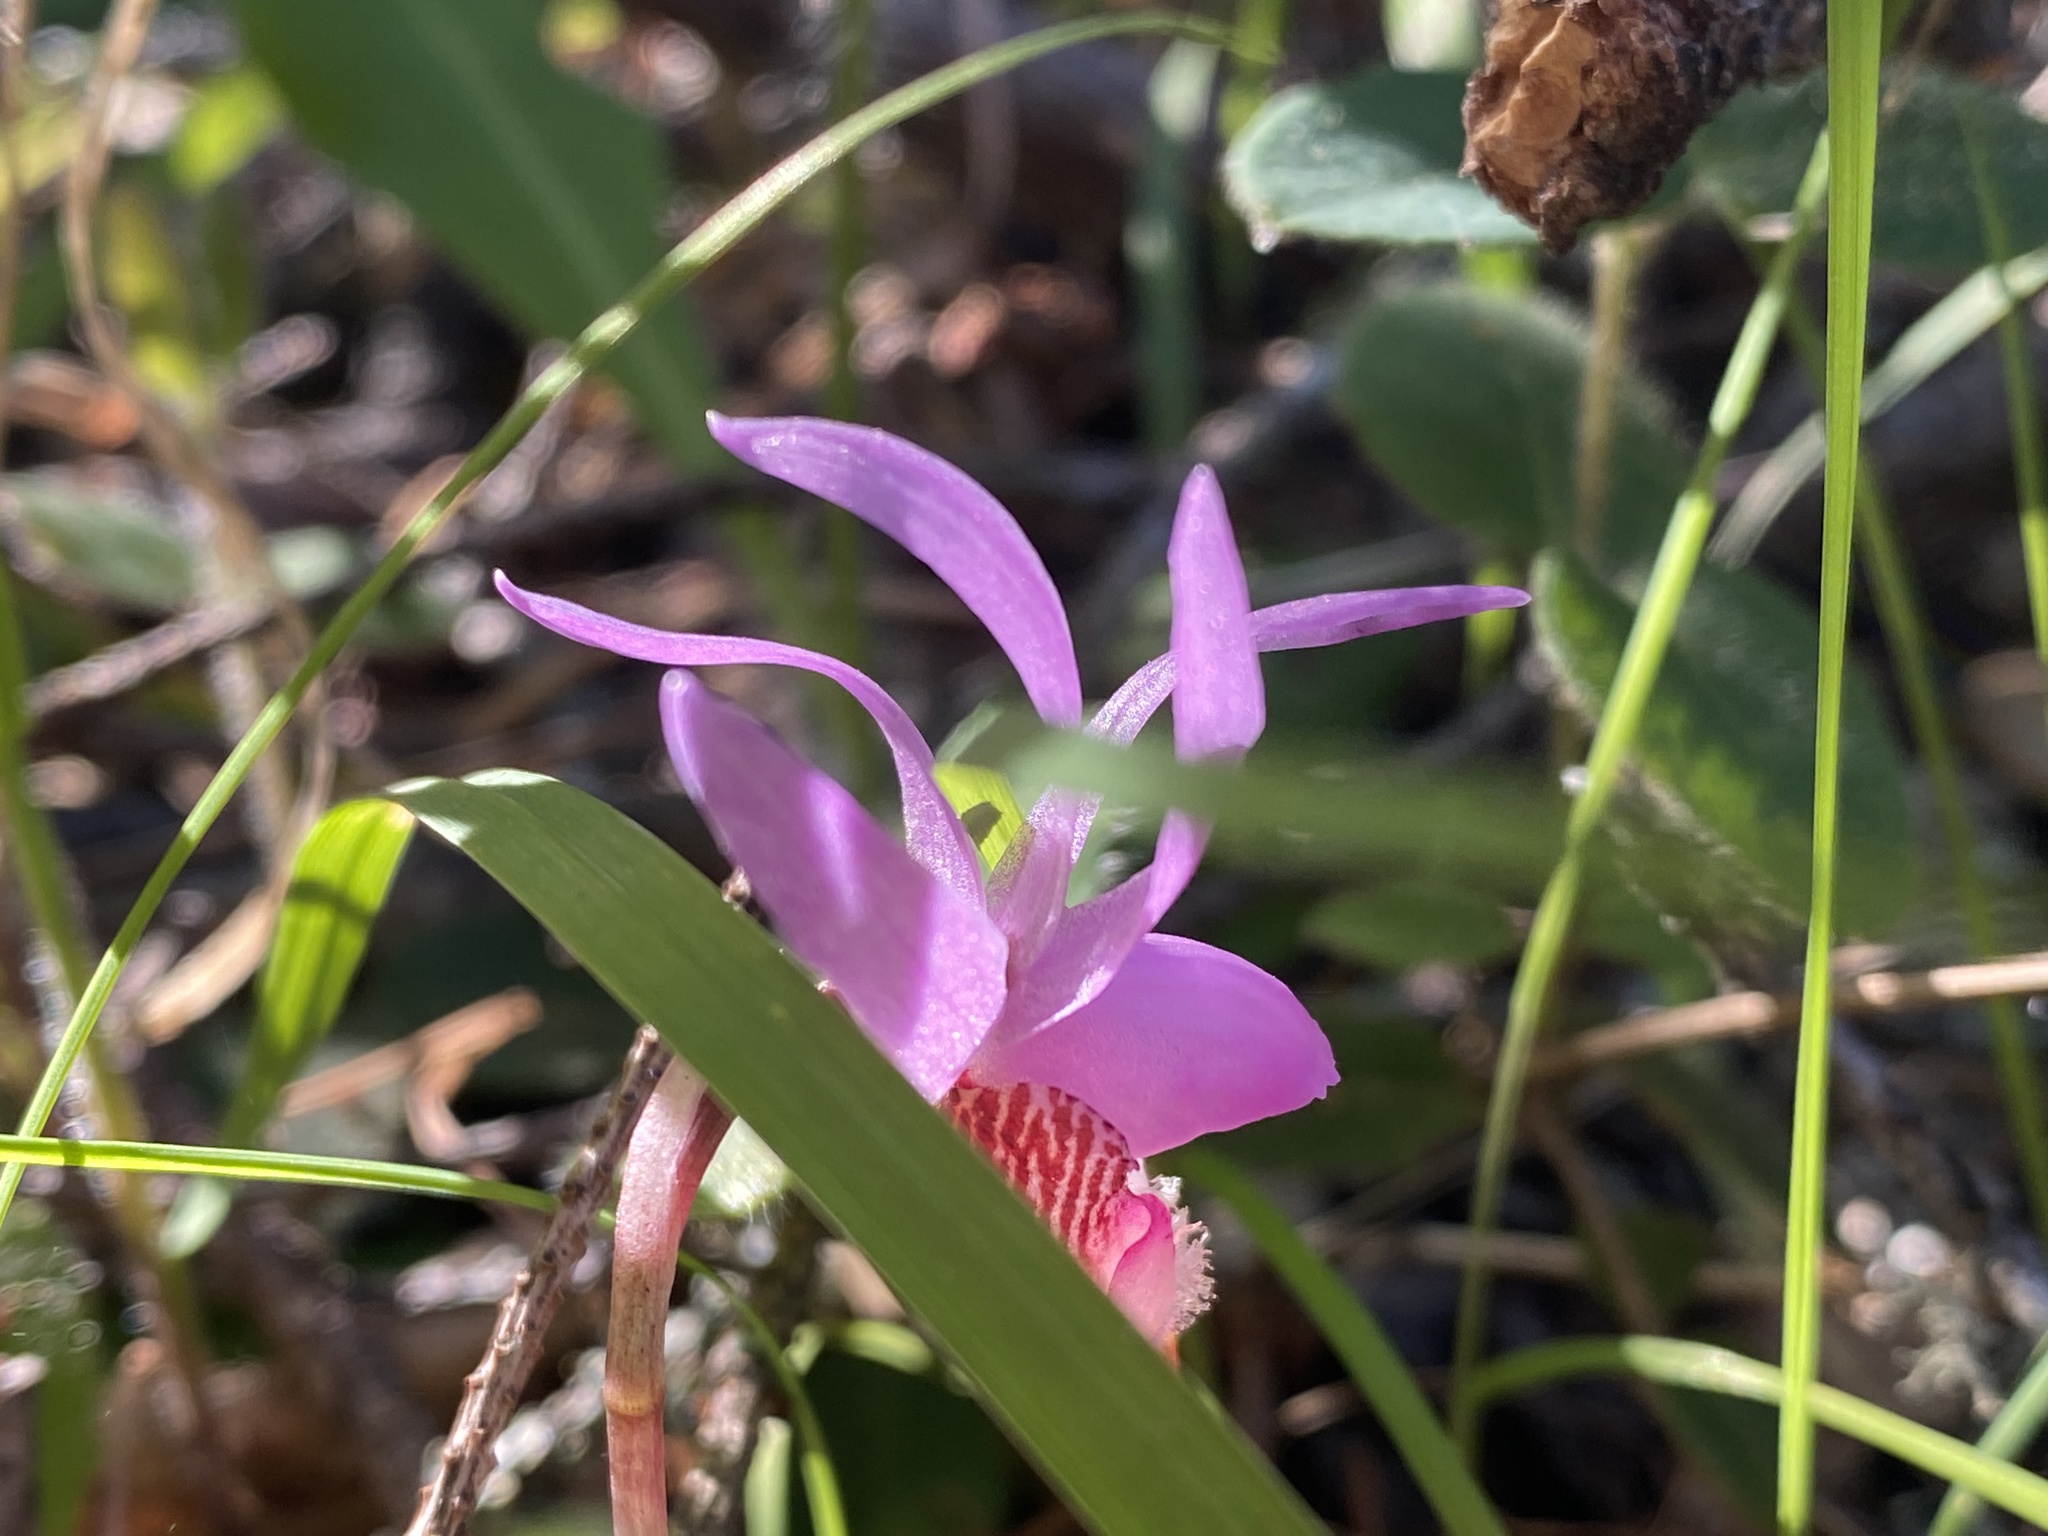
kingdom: Plantae
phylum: Tracheophyta
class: Liliopsida
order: Asparagales
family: Orchidaceae
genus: Calypso
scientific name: Calypso bulbosa
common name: Calypso
